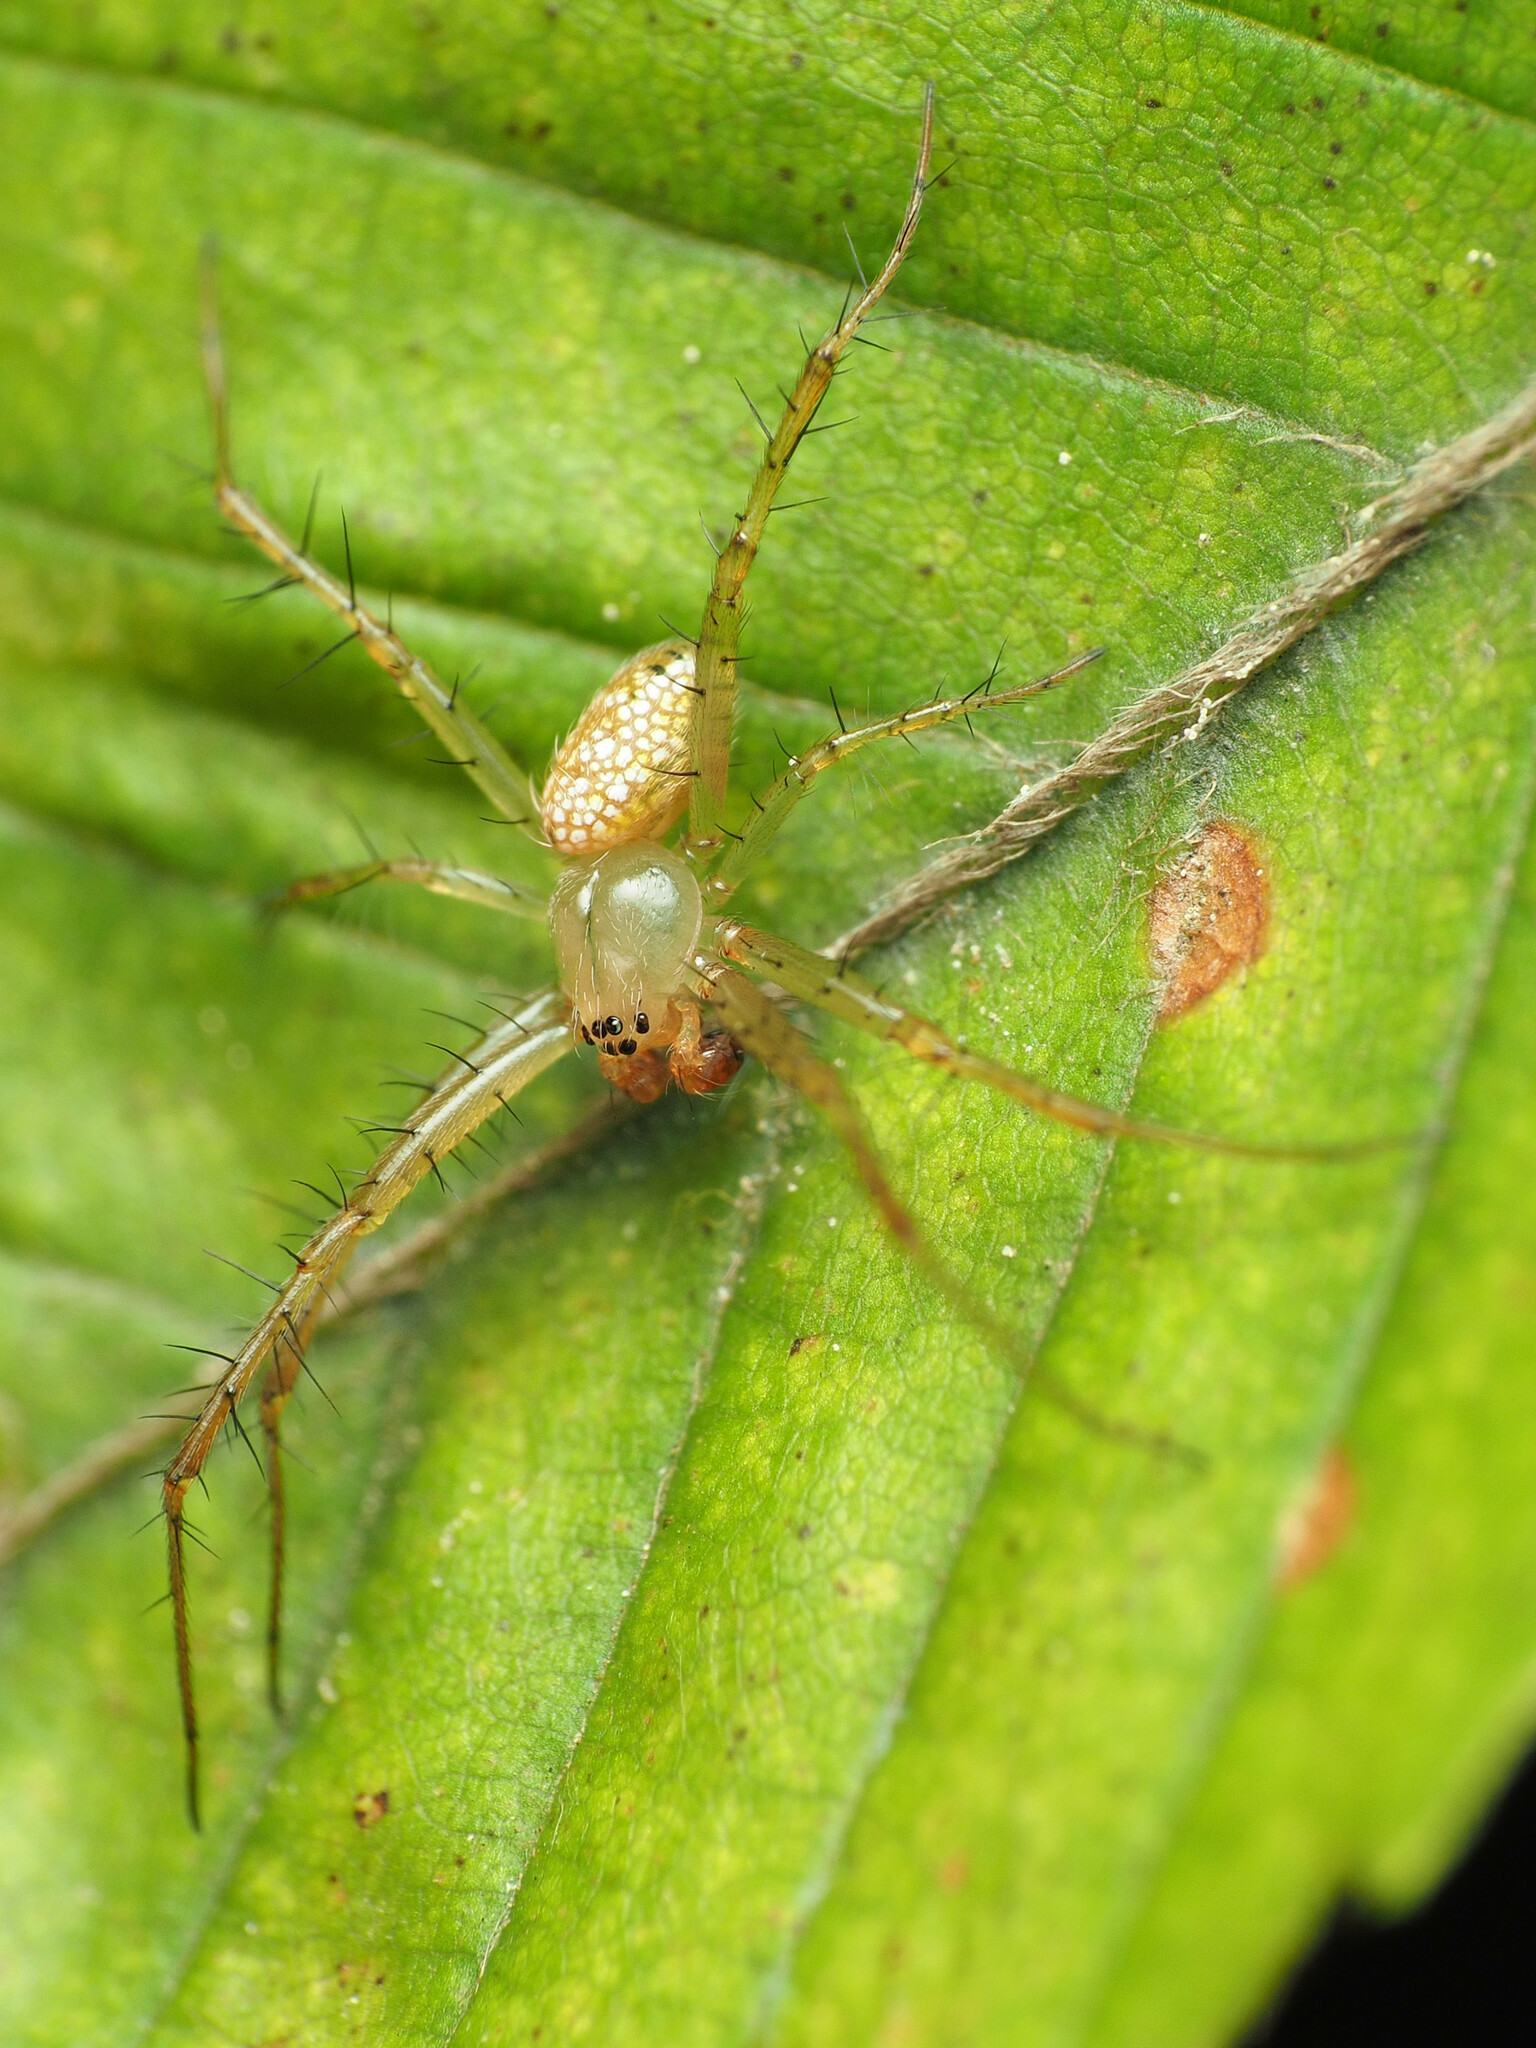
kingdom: Animalia
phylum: Arthropoda
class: Arachnida
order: Araneae
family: Araneidae
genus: Mangora
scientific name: Mangora maculata
